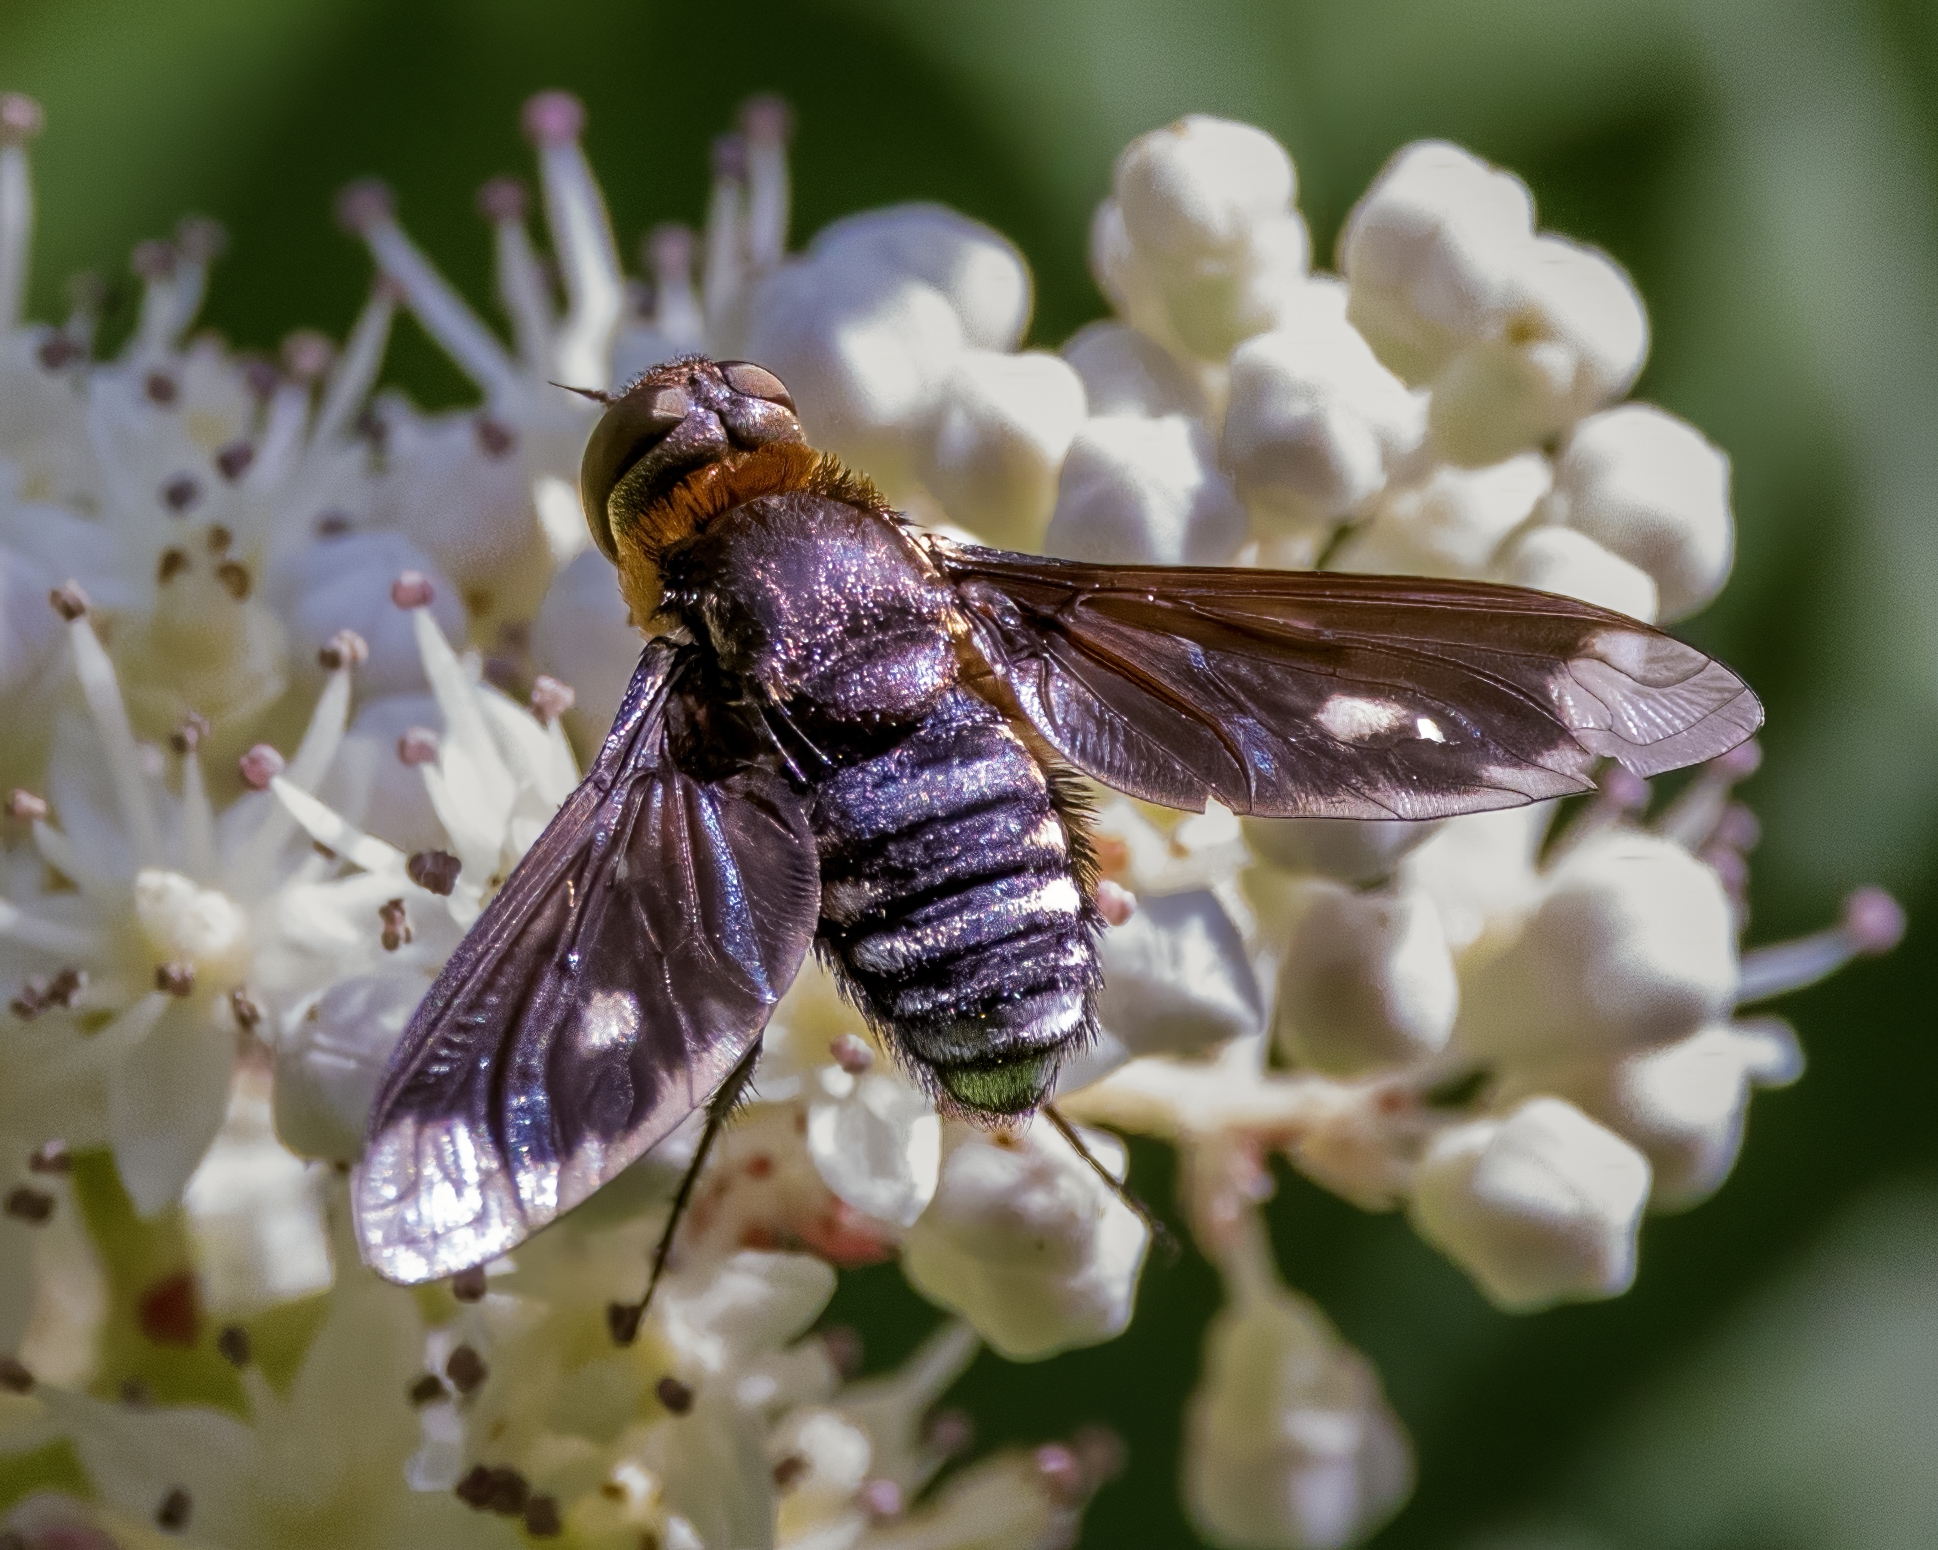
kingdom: Animalia
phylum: Arthropoda
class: Insecta
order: Diptera
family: Bombyliidae
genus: Exoprosopa
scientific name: Exoprosopa meigenii
